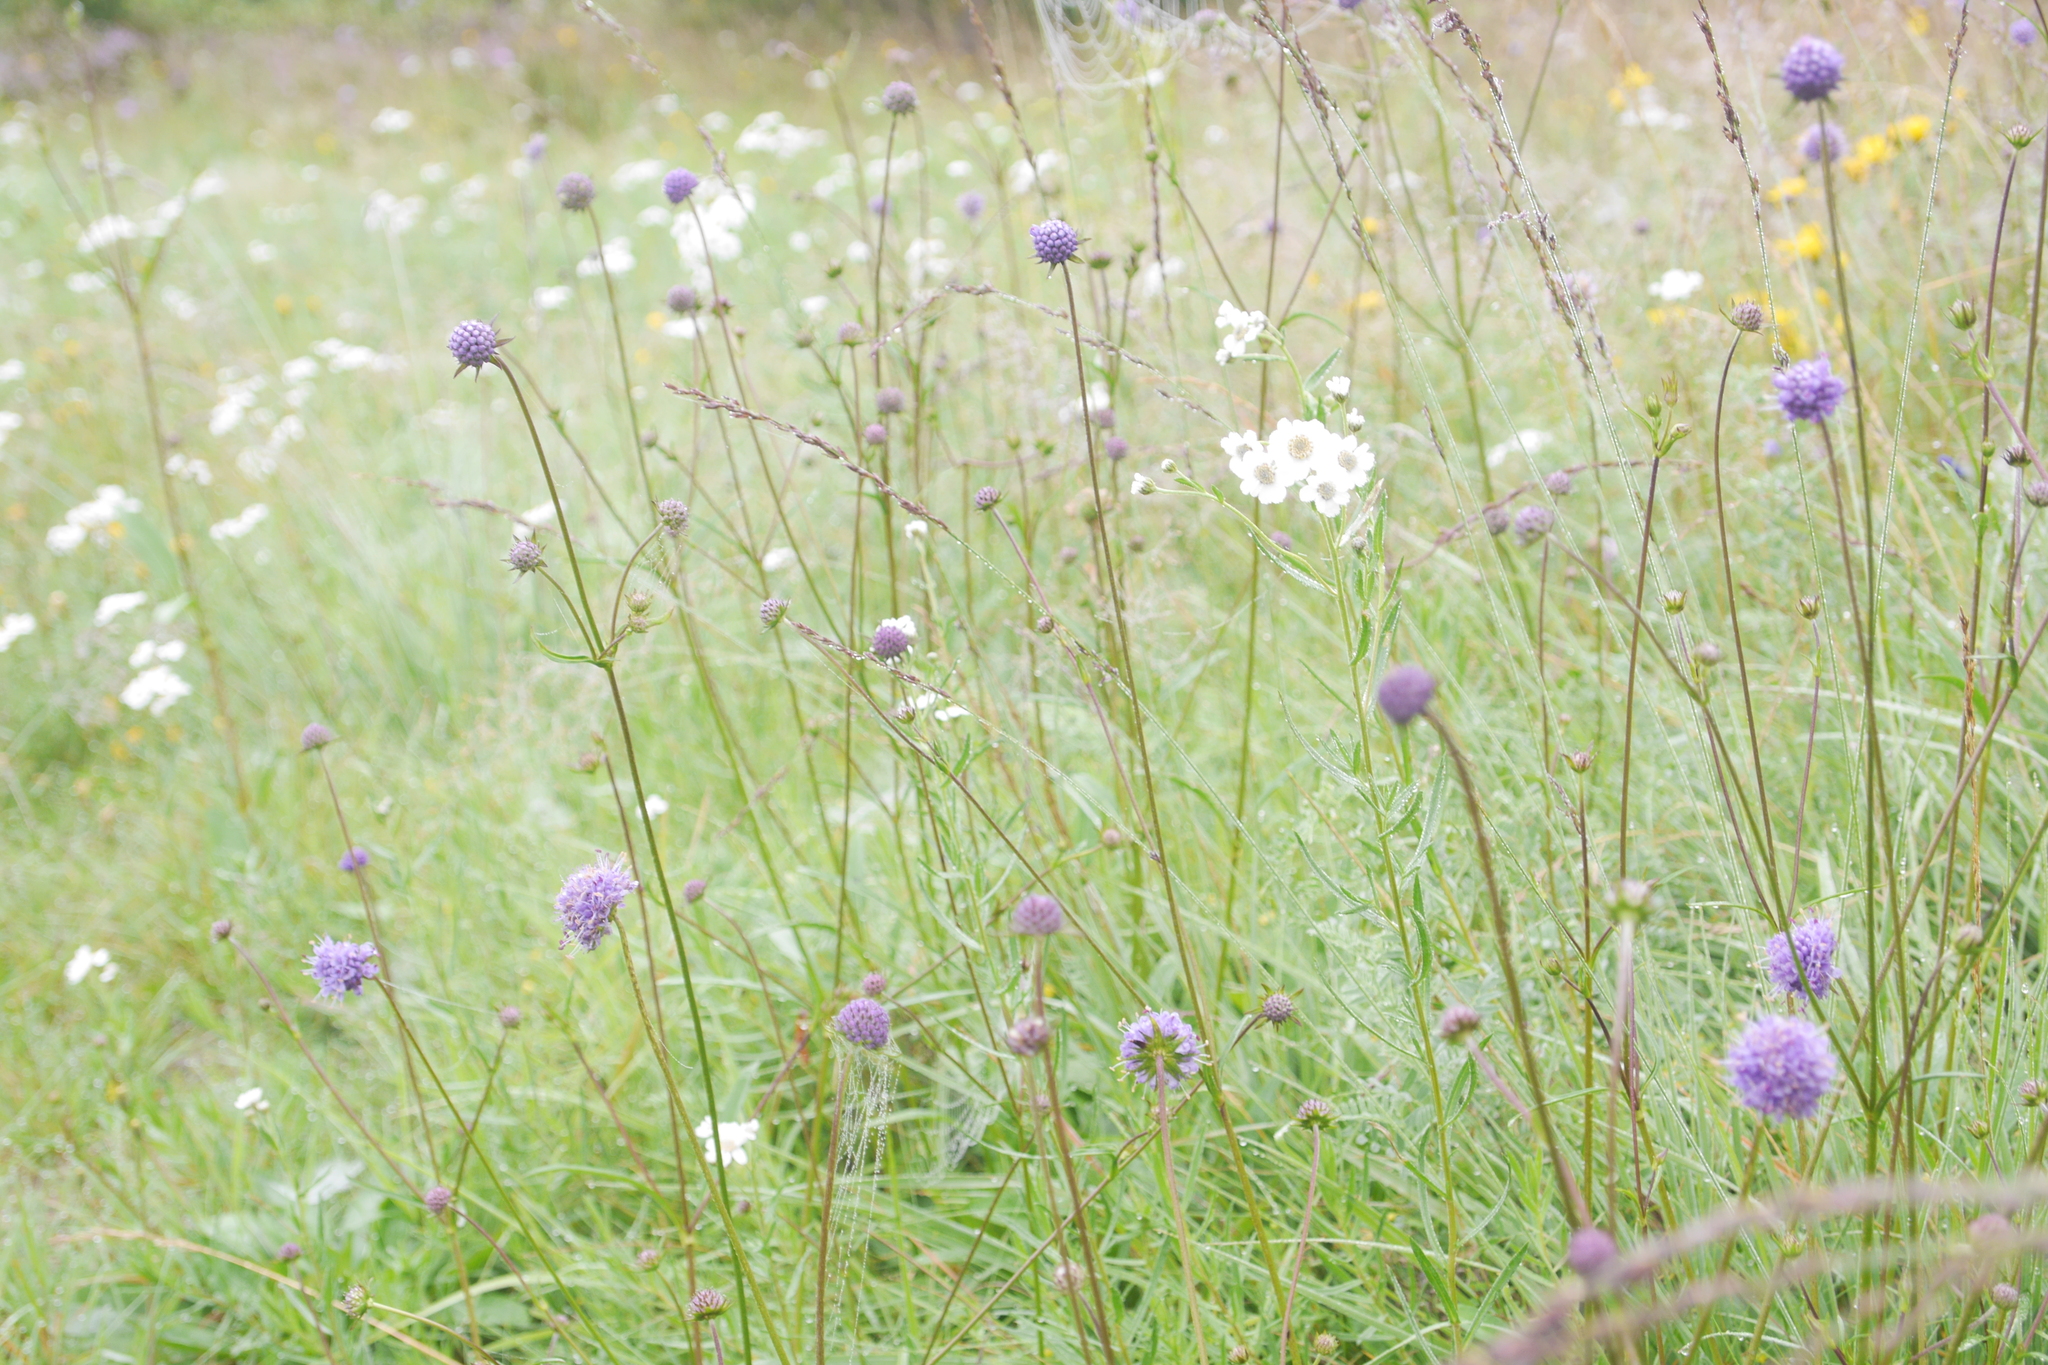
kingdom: Plantae
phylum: Tracheophyta
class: Magnoliopsida
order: Dipsacales
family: Caprifoliaceae
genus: Succisa
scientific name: Succisa pratensis
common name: Devil's-bit
